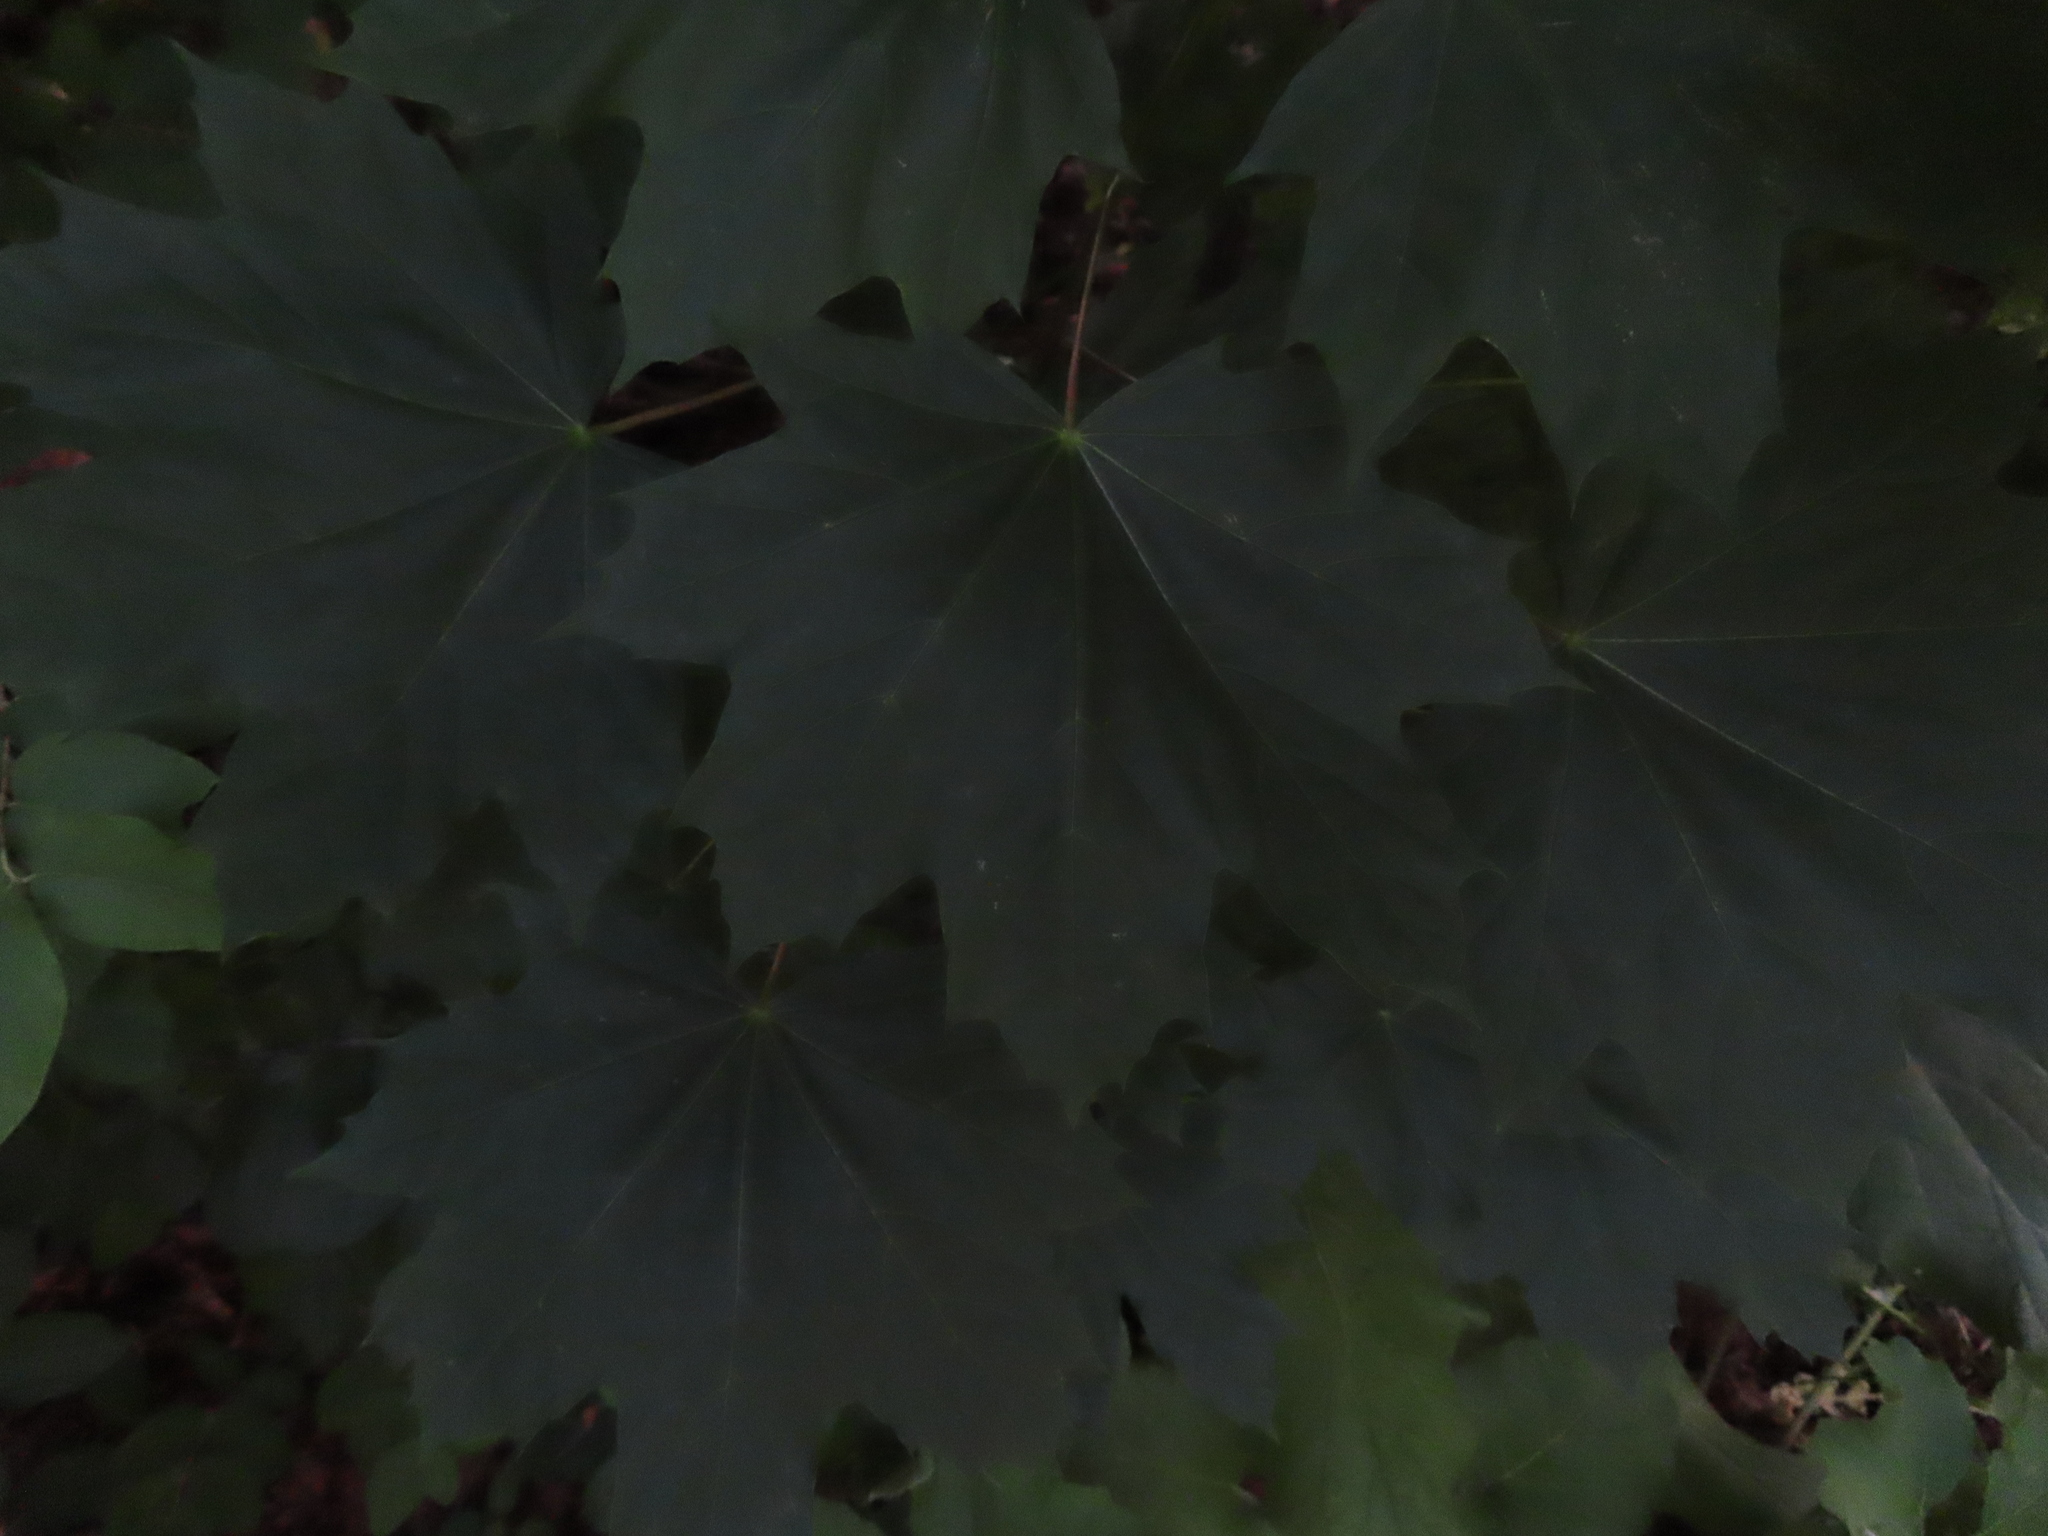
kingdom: Plantae
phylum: Tracheophyta
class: Magnoliopsida
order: Sapindales
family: Sapindaceae
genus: Acer
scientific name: Acer platanoides
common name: Norway maple
